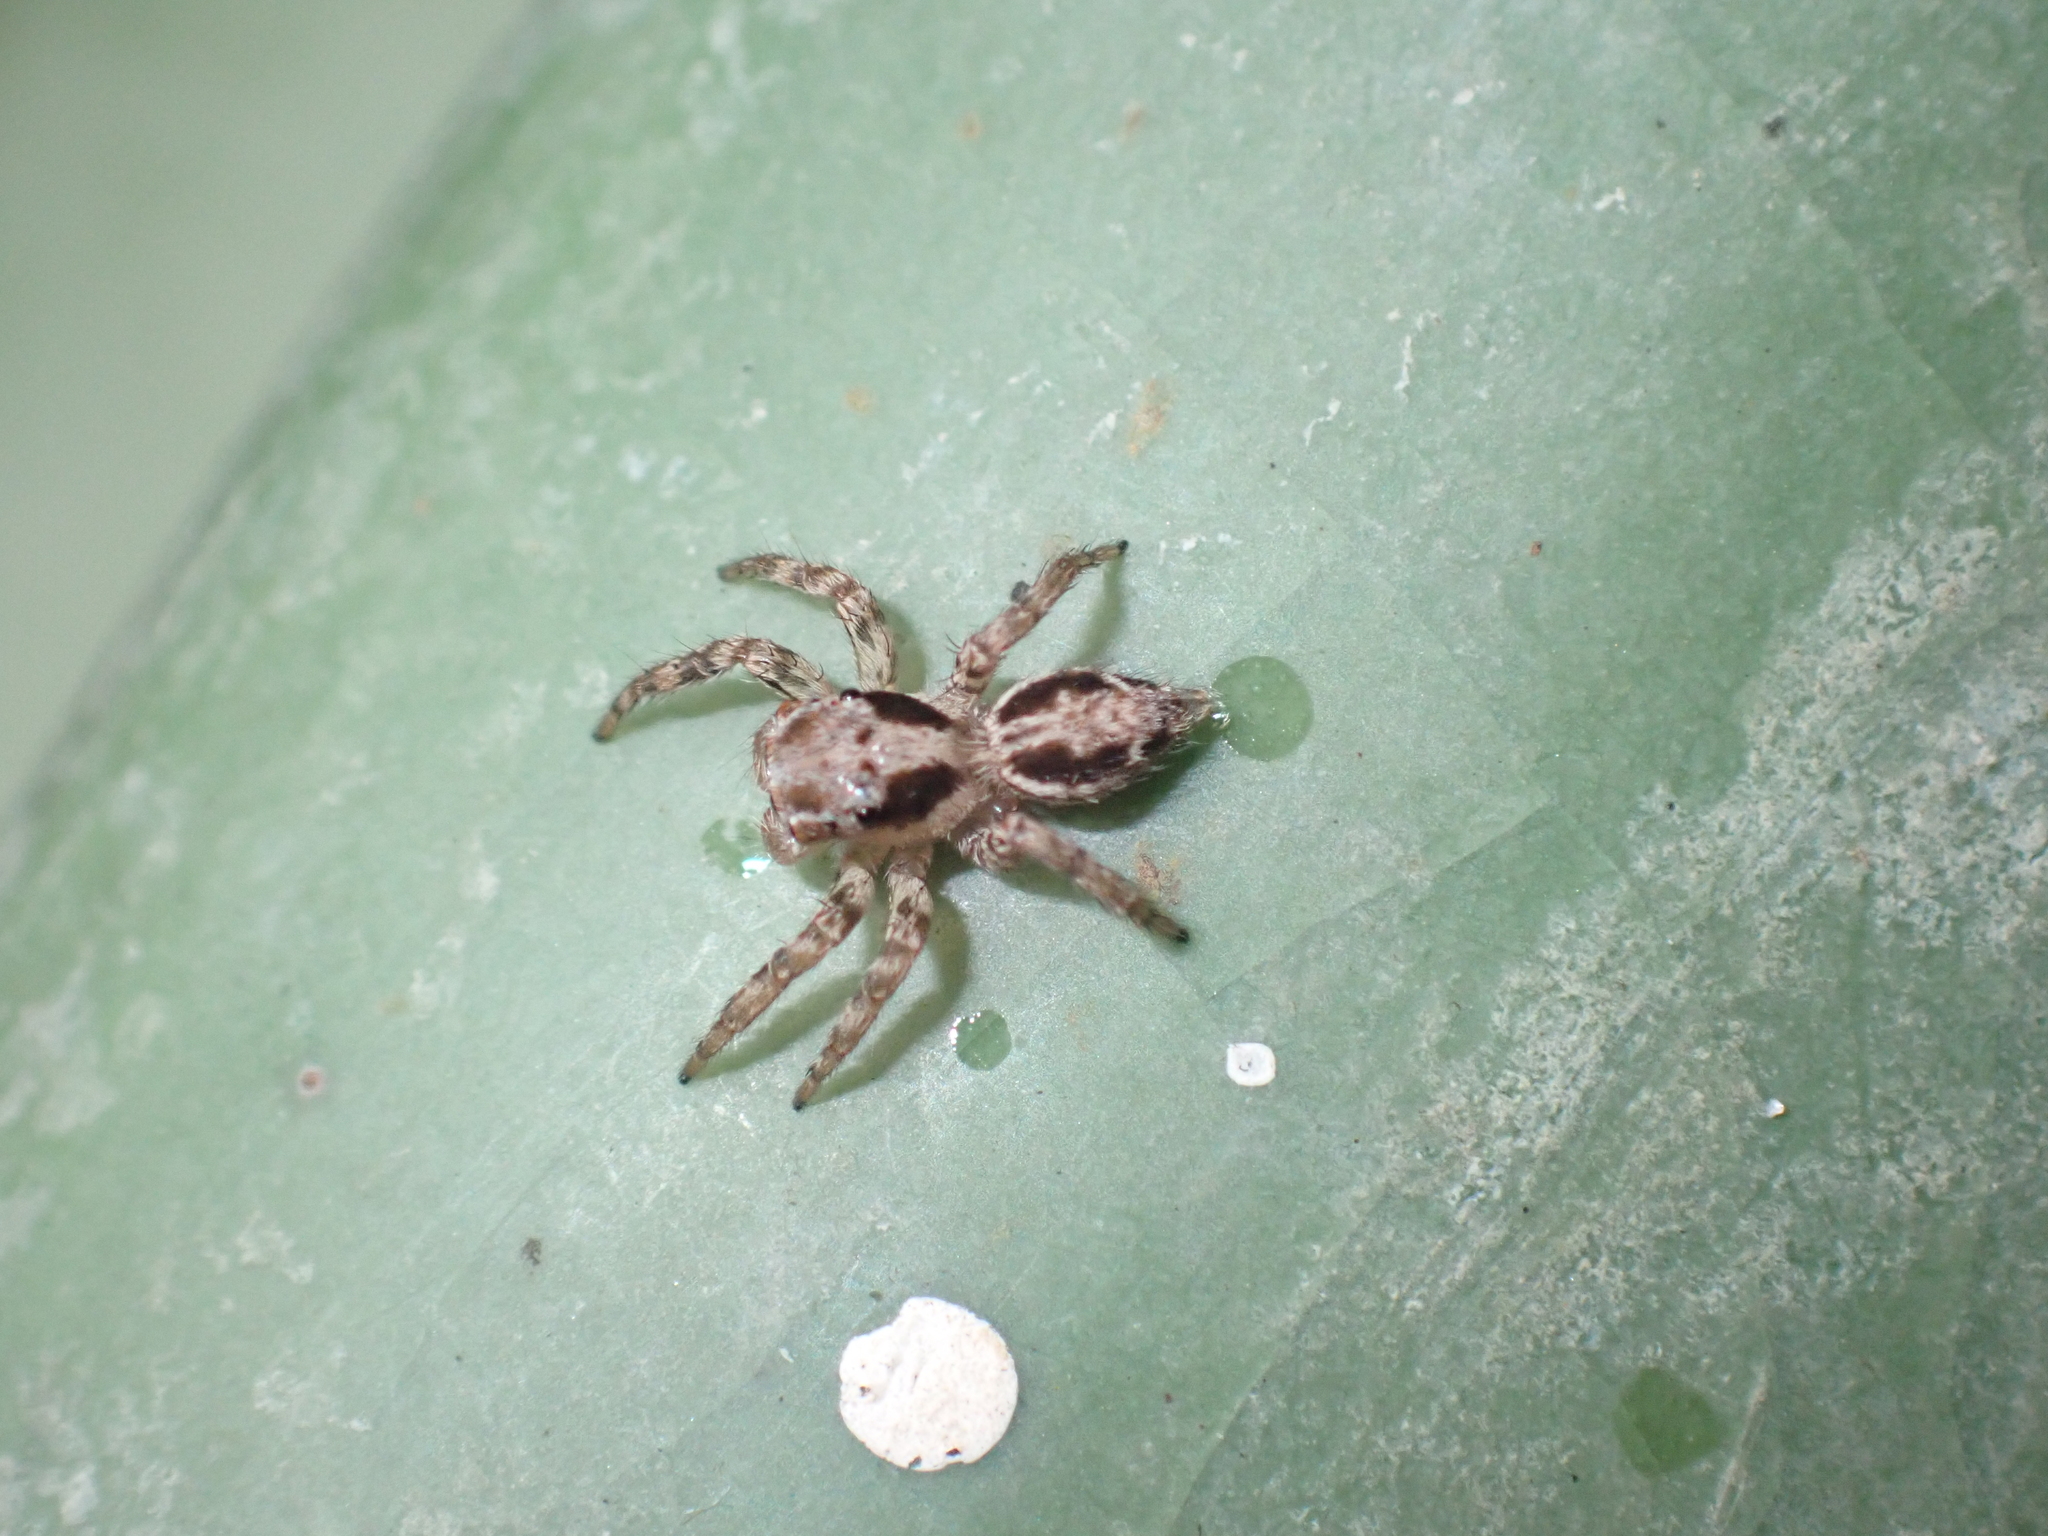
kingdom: Animalia
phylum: Arthropoda
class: Arachnida
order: Araneae
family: Salticidae
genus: Plexippus
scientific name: Plexippus petersi
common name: Jumping spider
